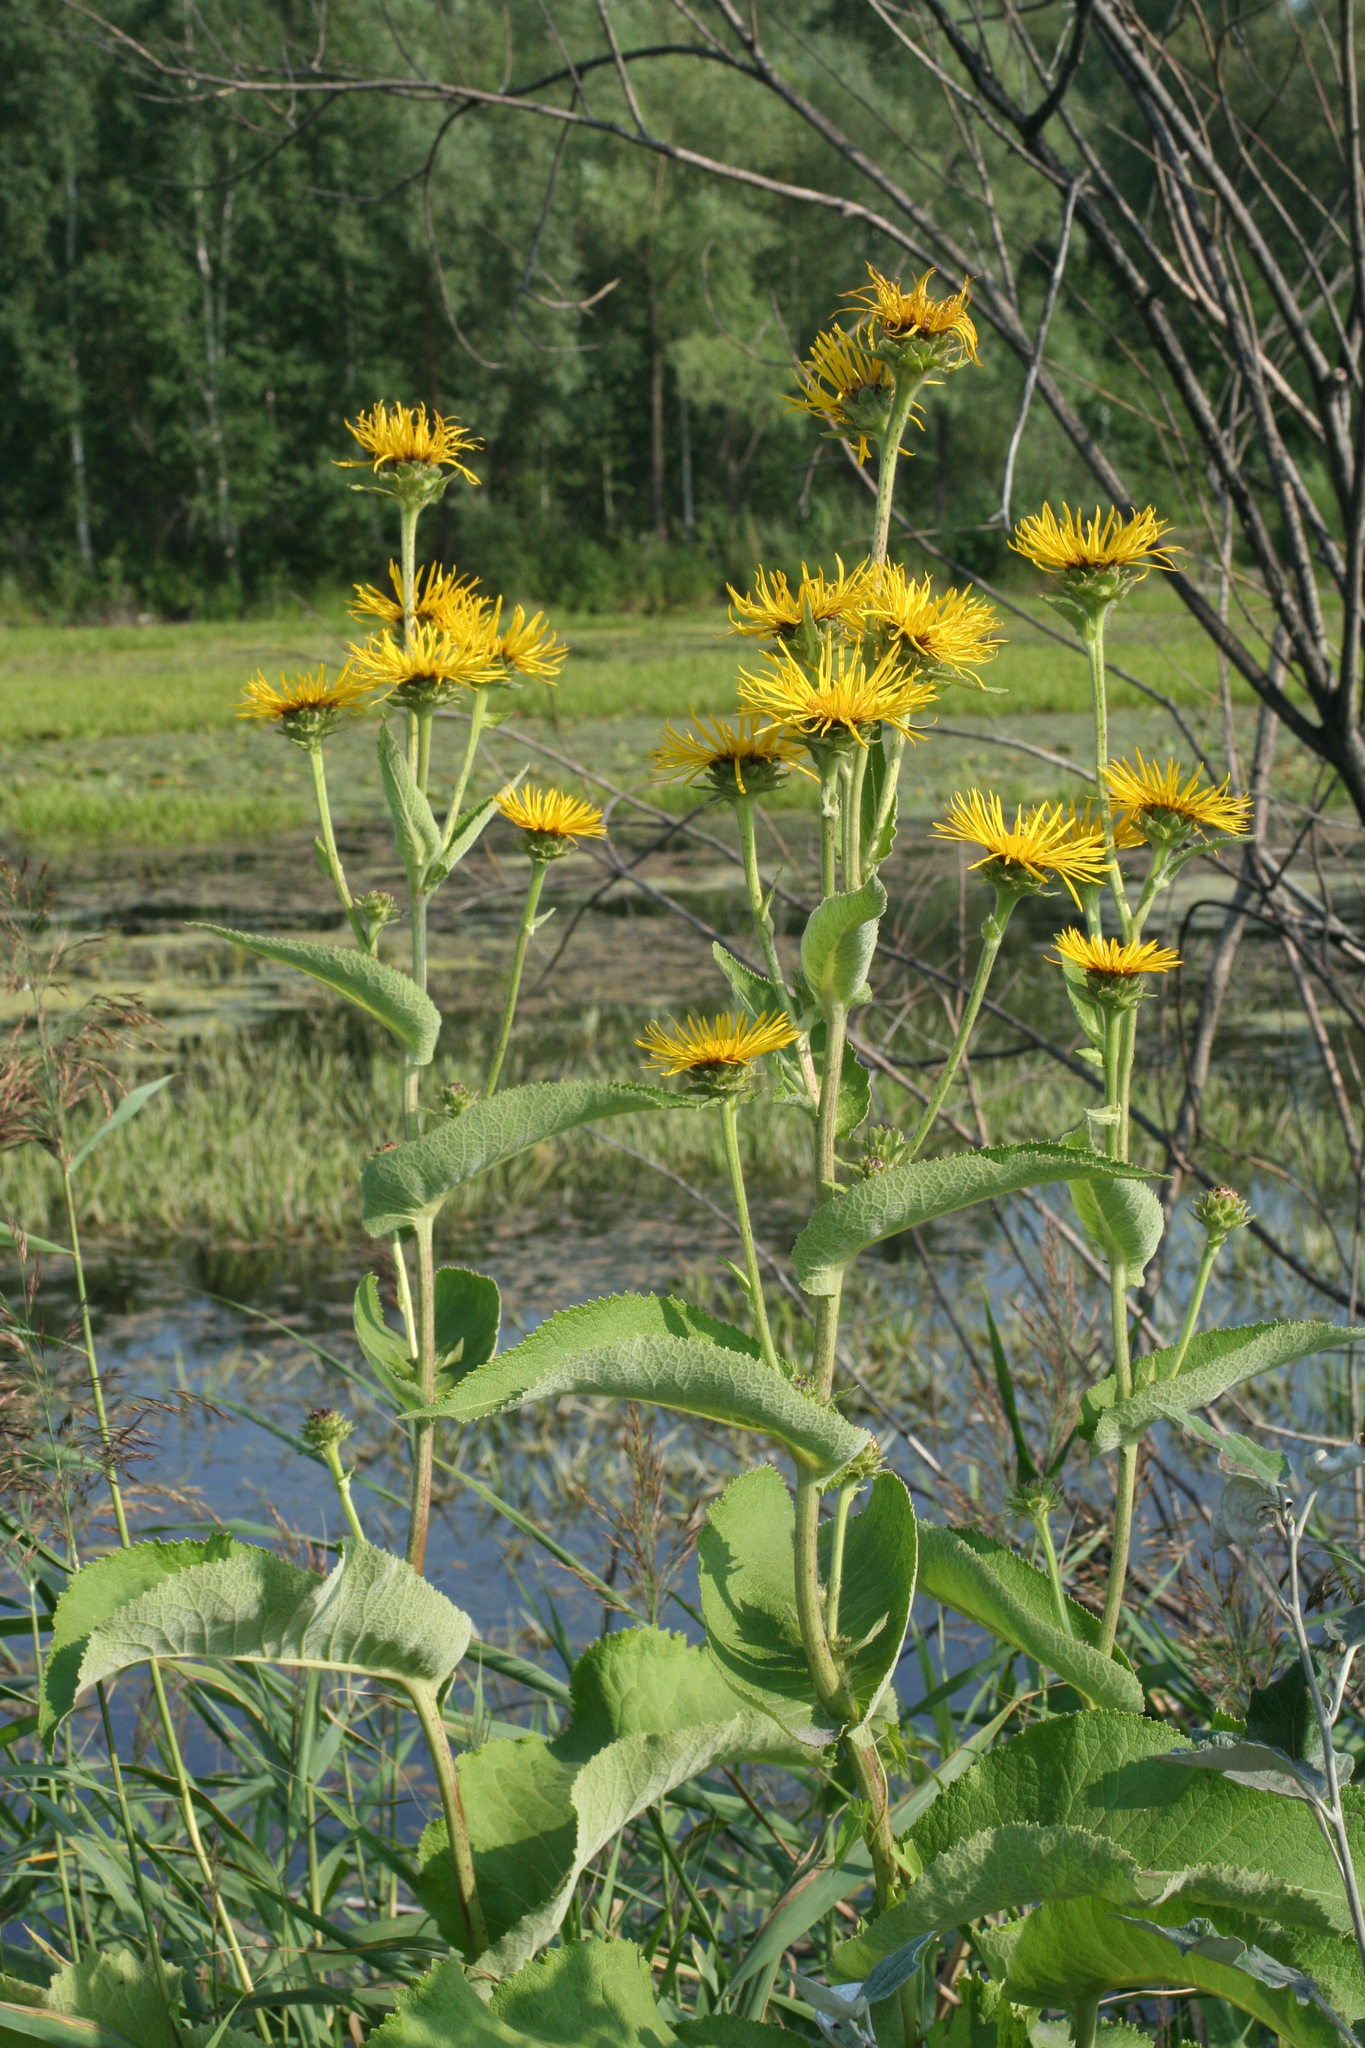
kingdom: Plantae
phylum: Tracheophyta
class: Magnoliopsida
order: Asterales
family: Asteraceae
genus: Inula
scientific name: Inula helenium
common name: Elecampane
